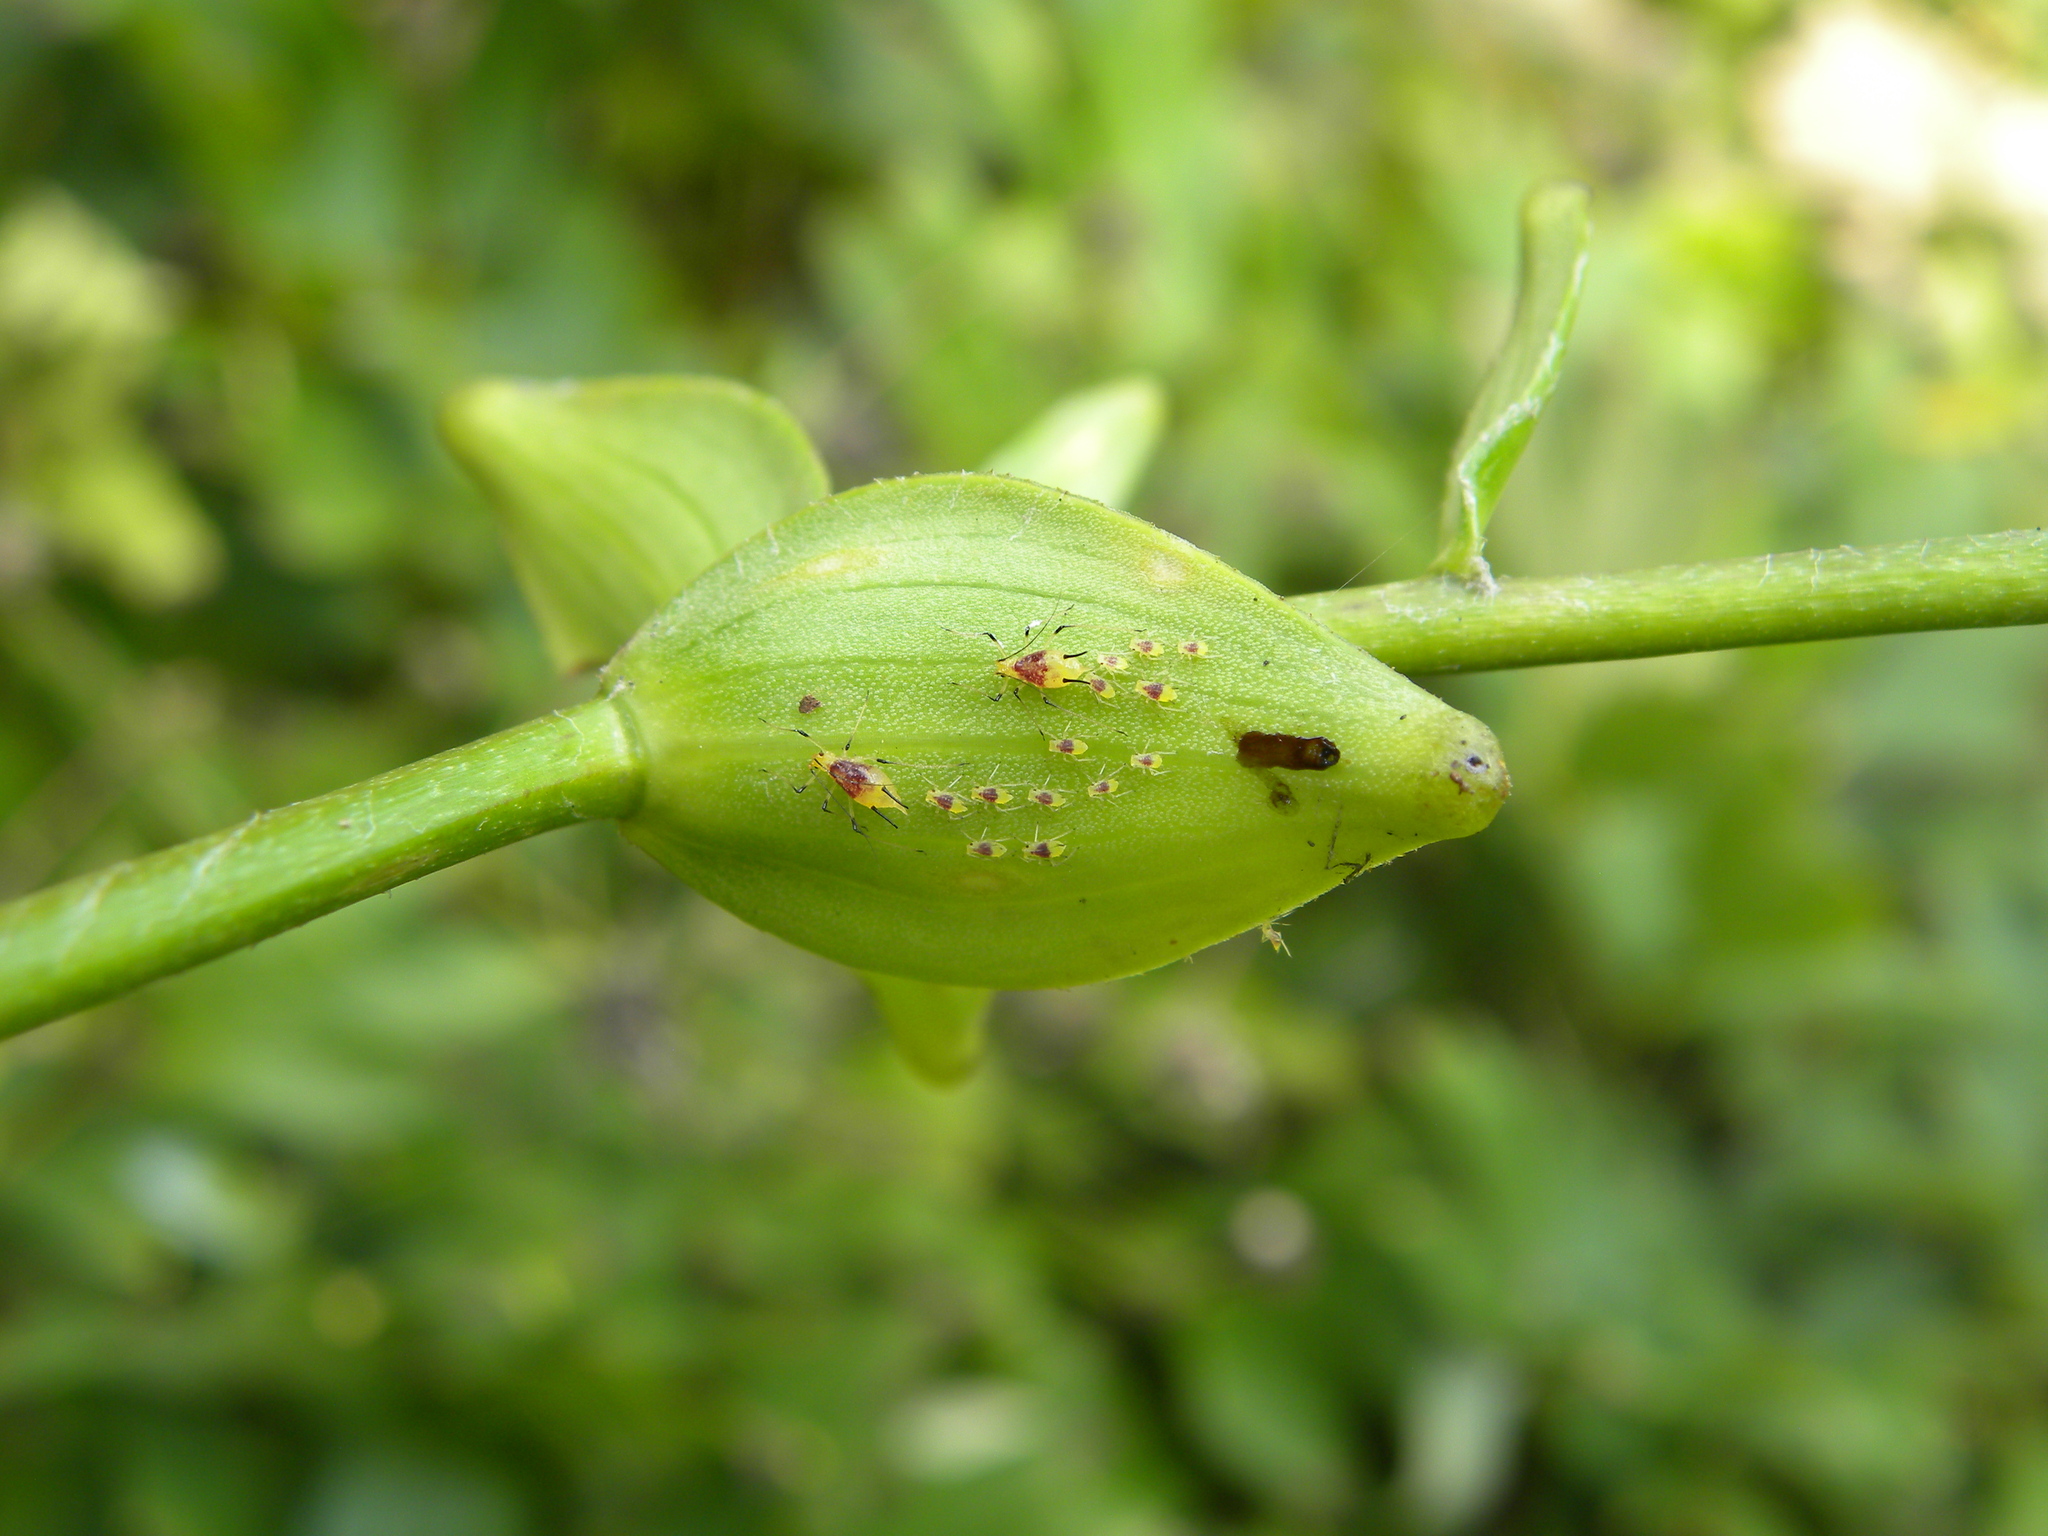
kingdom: Animalia
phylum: Arthropoda
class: Insecta
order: Hemiptera
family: Aphididae
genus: Macrosiphum
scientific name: Macrosiphum lilii
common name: Purplespotted lily aphid
